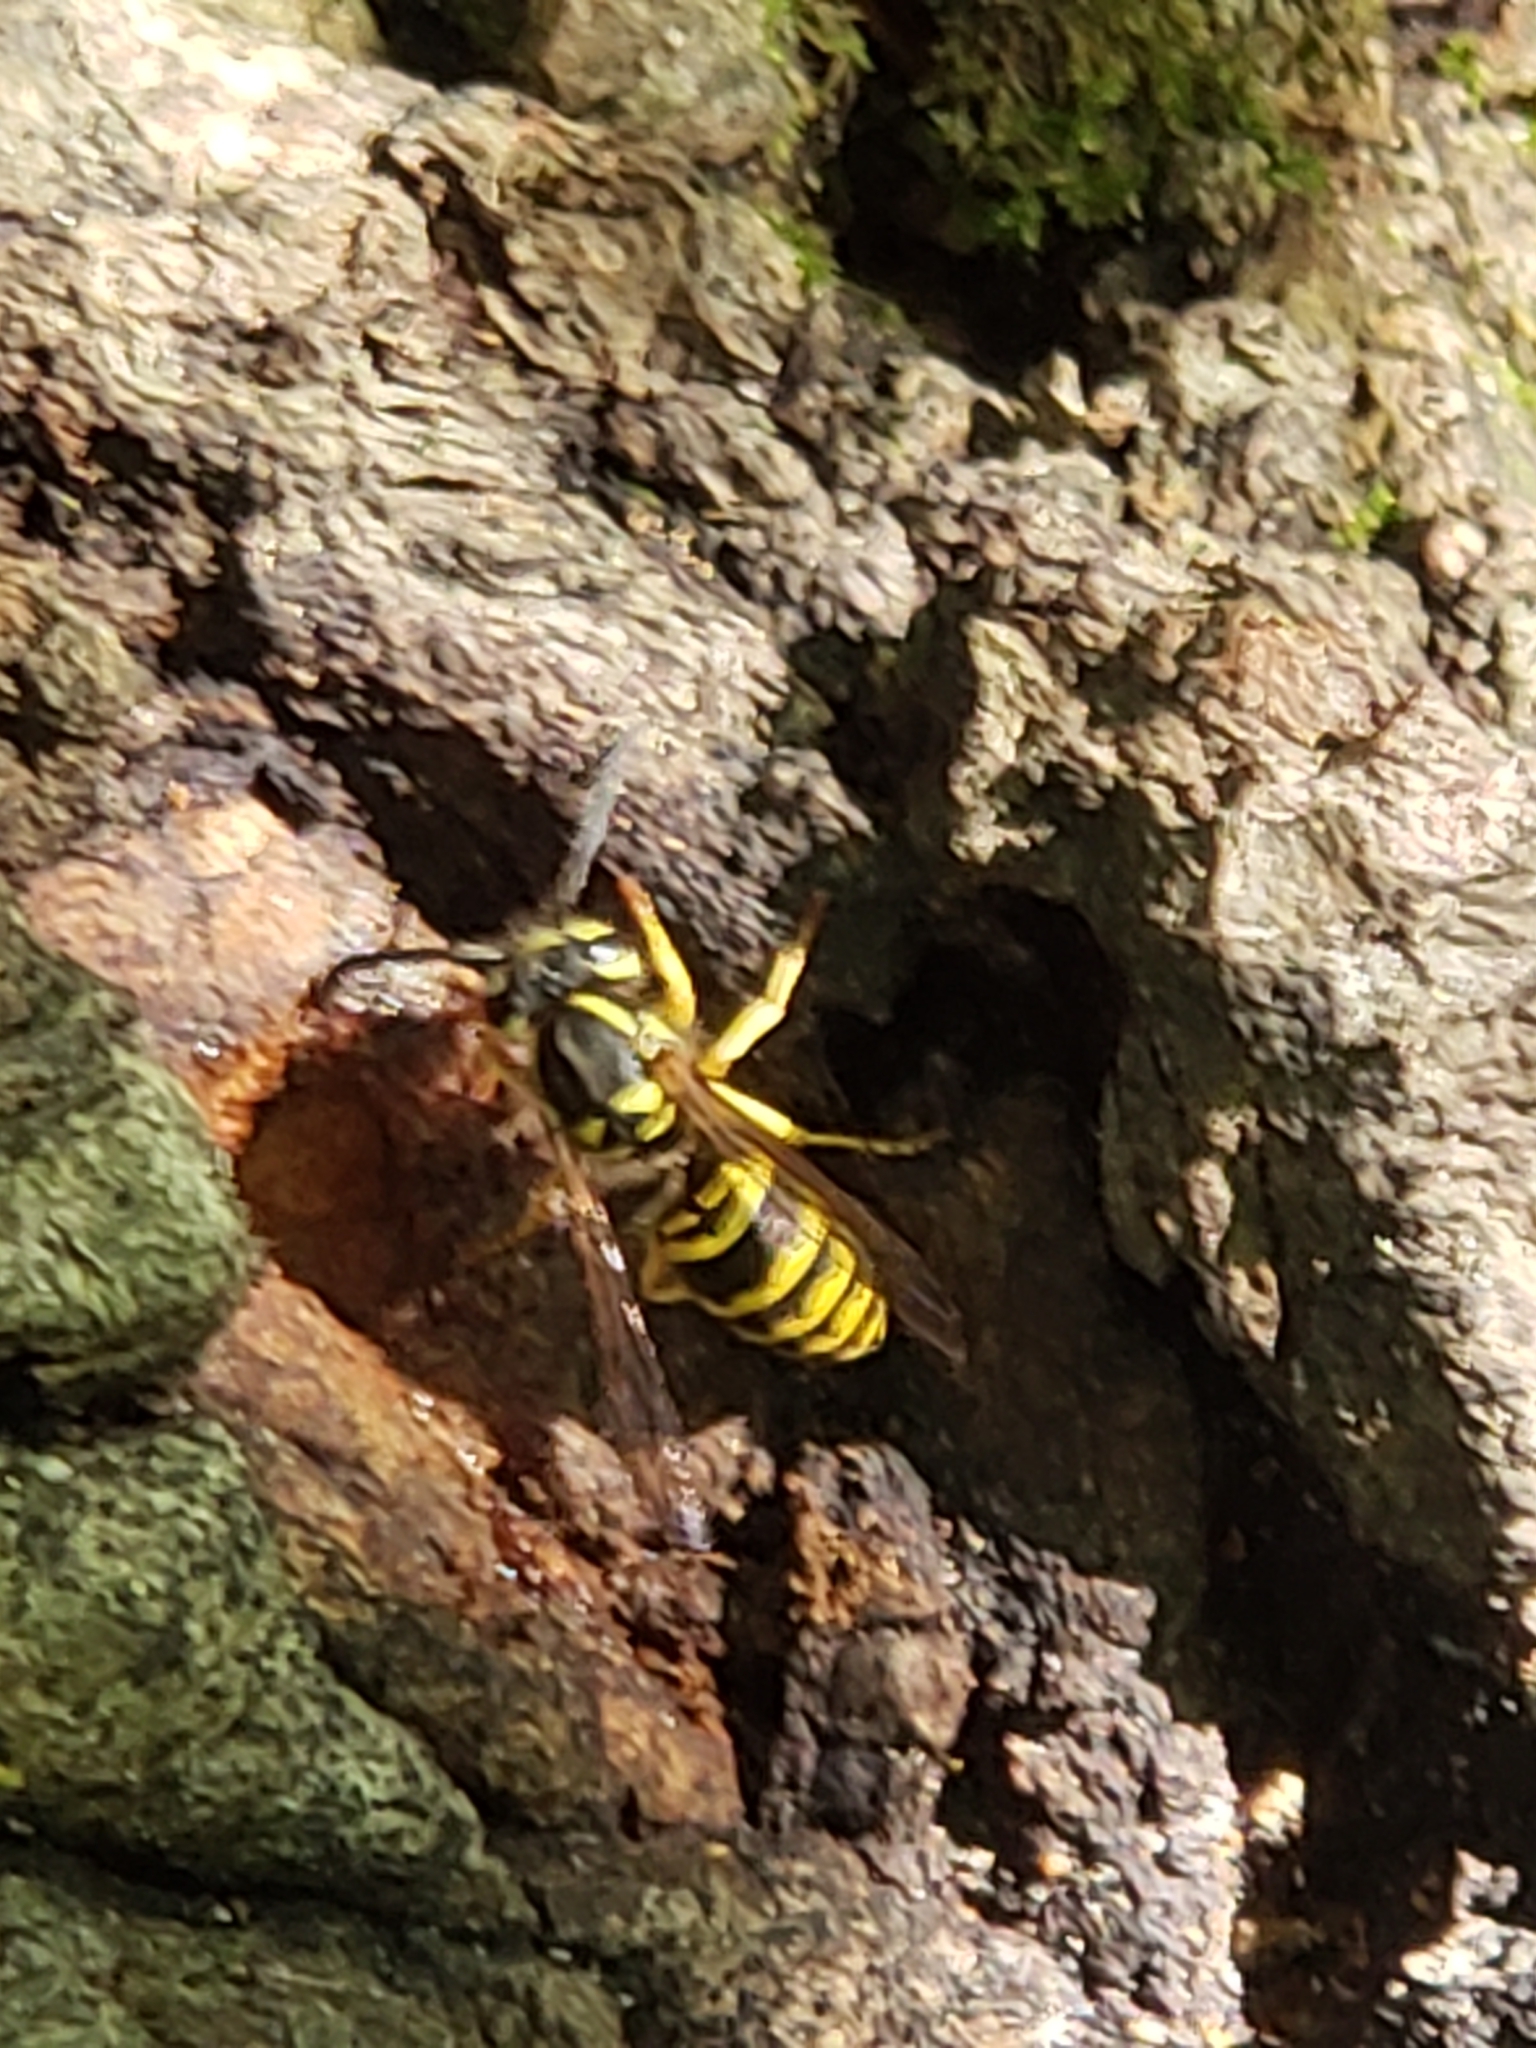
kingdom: Animalia
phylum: Arthropoda
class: Insecta
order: Hymenoptera
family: Vespidae
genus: Vespula
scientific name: Vespula maculifrons
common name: Eastern yellowjacket
